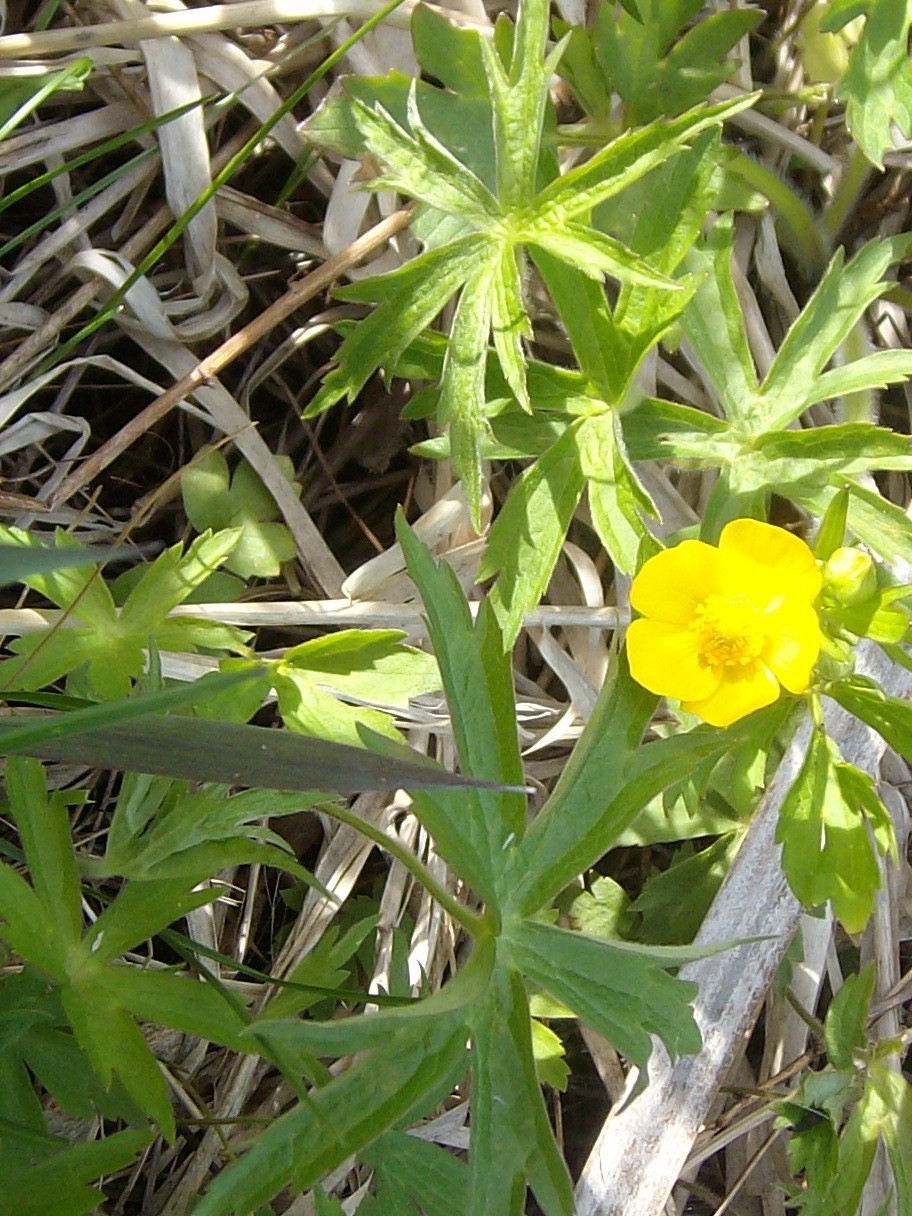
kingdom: Plantae
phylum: Tracheophyta
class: Magnoliopsida
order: Ranunculales
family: Ranunculaceae
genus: Ranunculus
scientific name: Ranunculus acris
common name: Meadow buttercup
